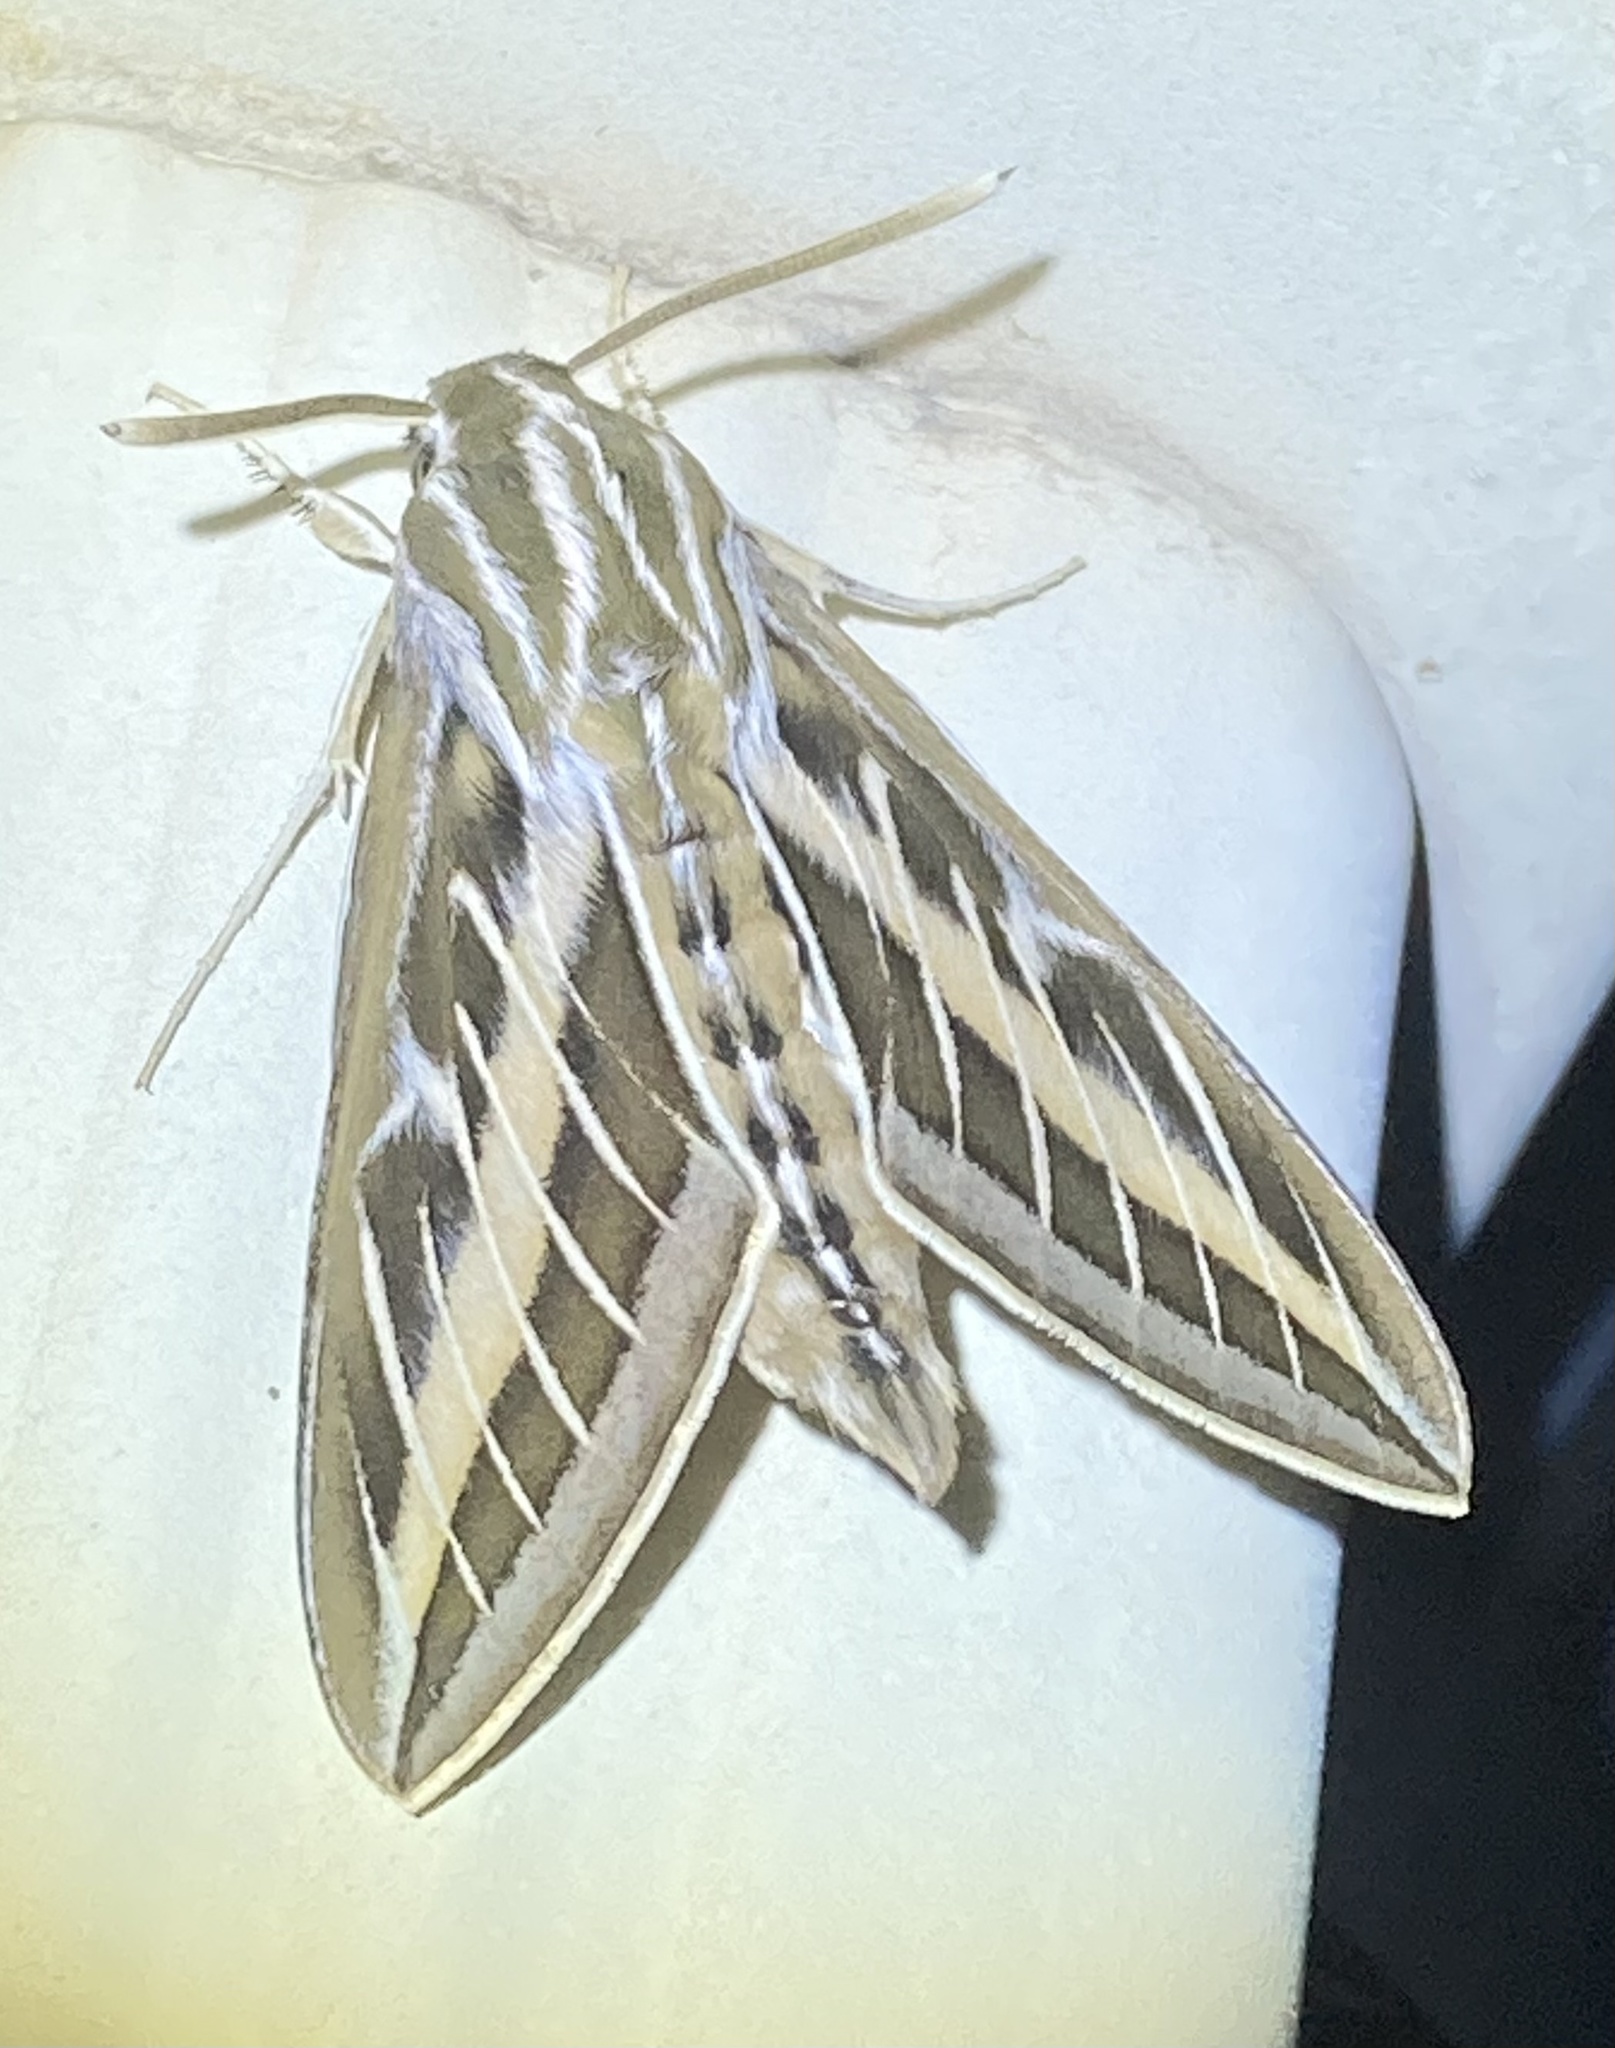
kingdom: Animalia
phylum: Arthropoda
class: Insecta
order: Lepidoptera
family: Sphingidae
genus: Hyles
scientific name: Hyles lineata
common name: White-lined sphinx
